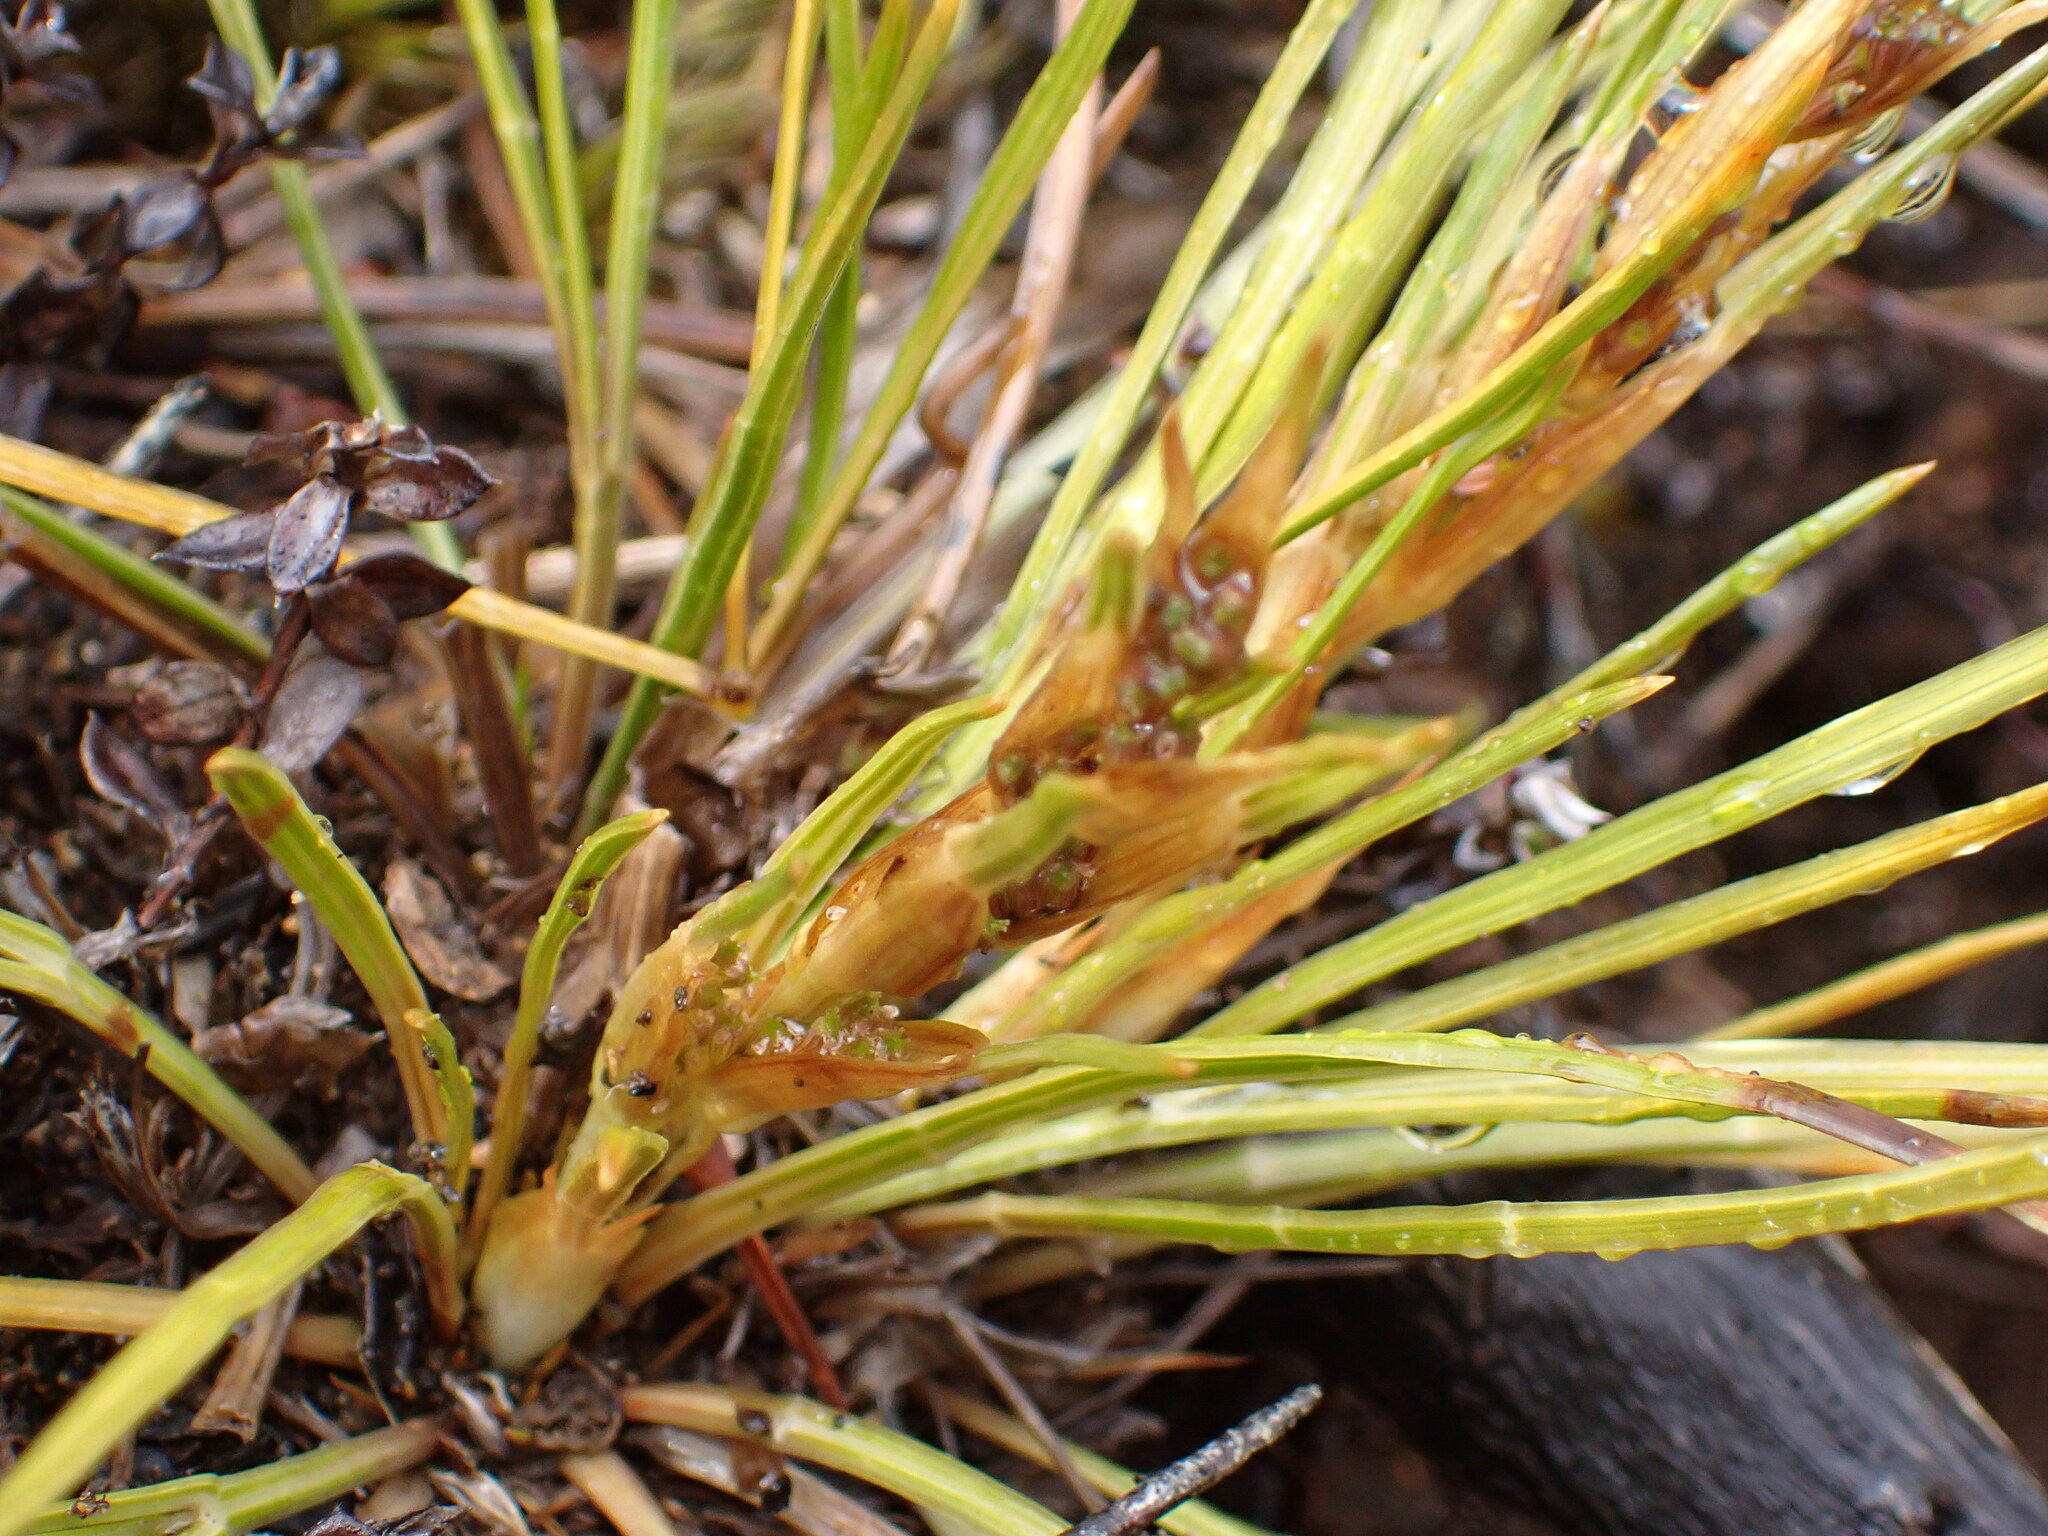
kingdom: Plantae
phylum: Tracheophyta
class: Magnoliopsida
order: Apiales
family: Apiaceae
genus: Aciphylla
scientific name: Aciphylla lyallii
